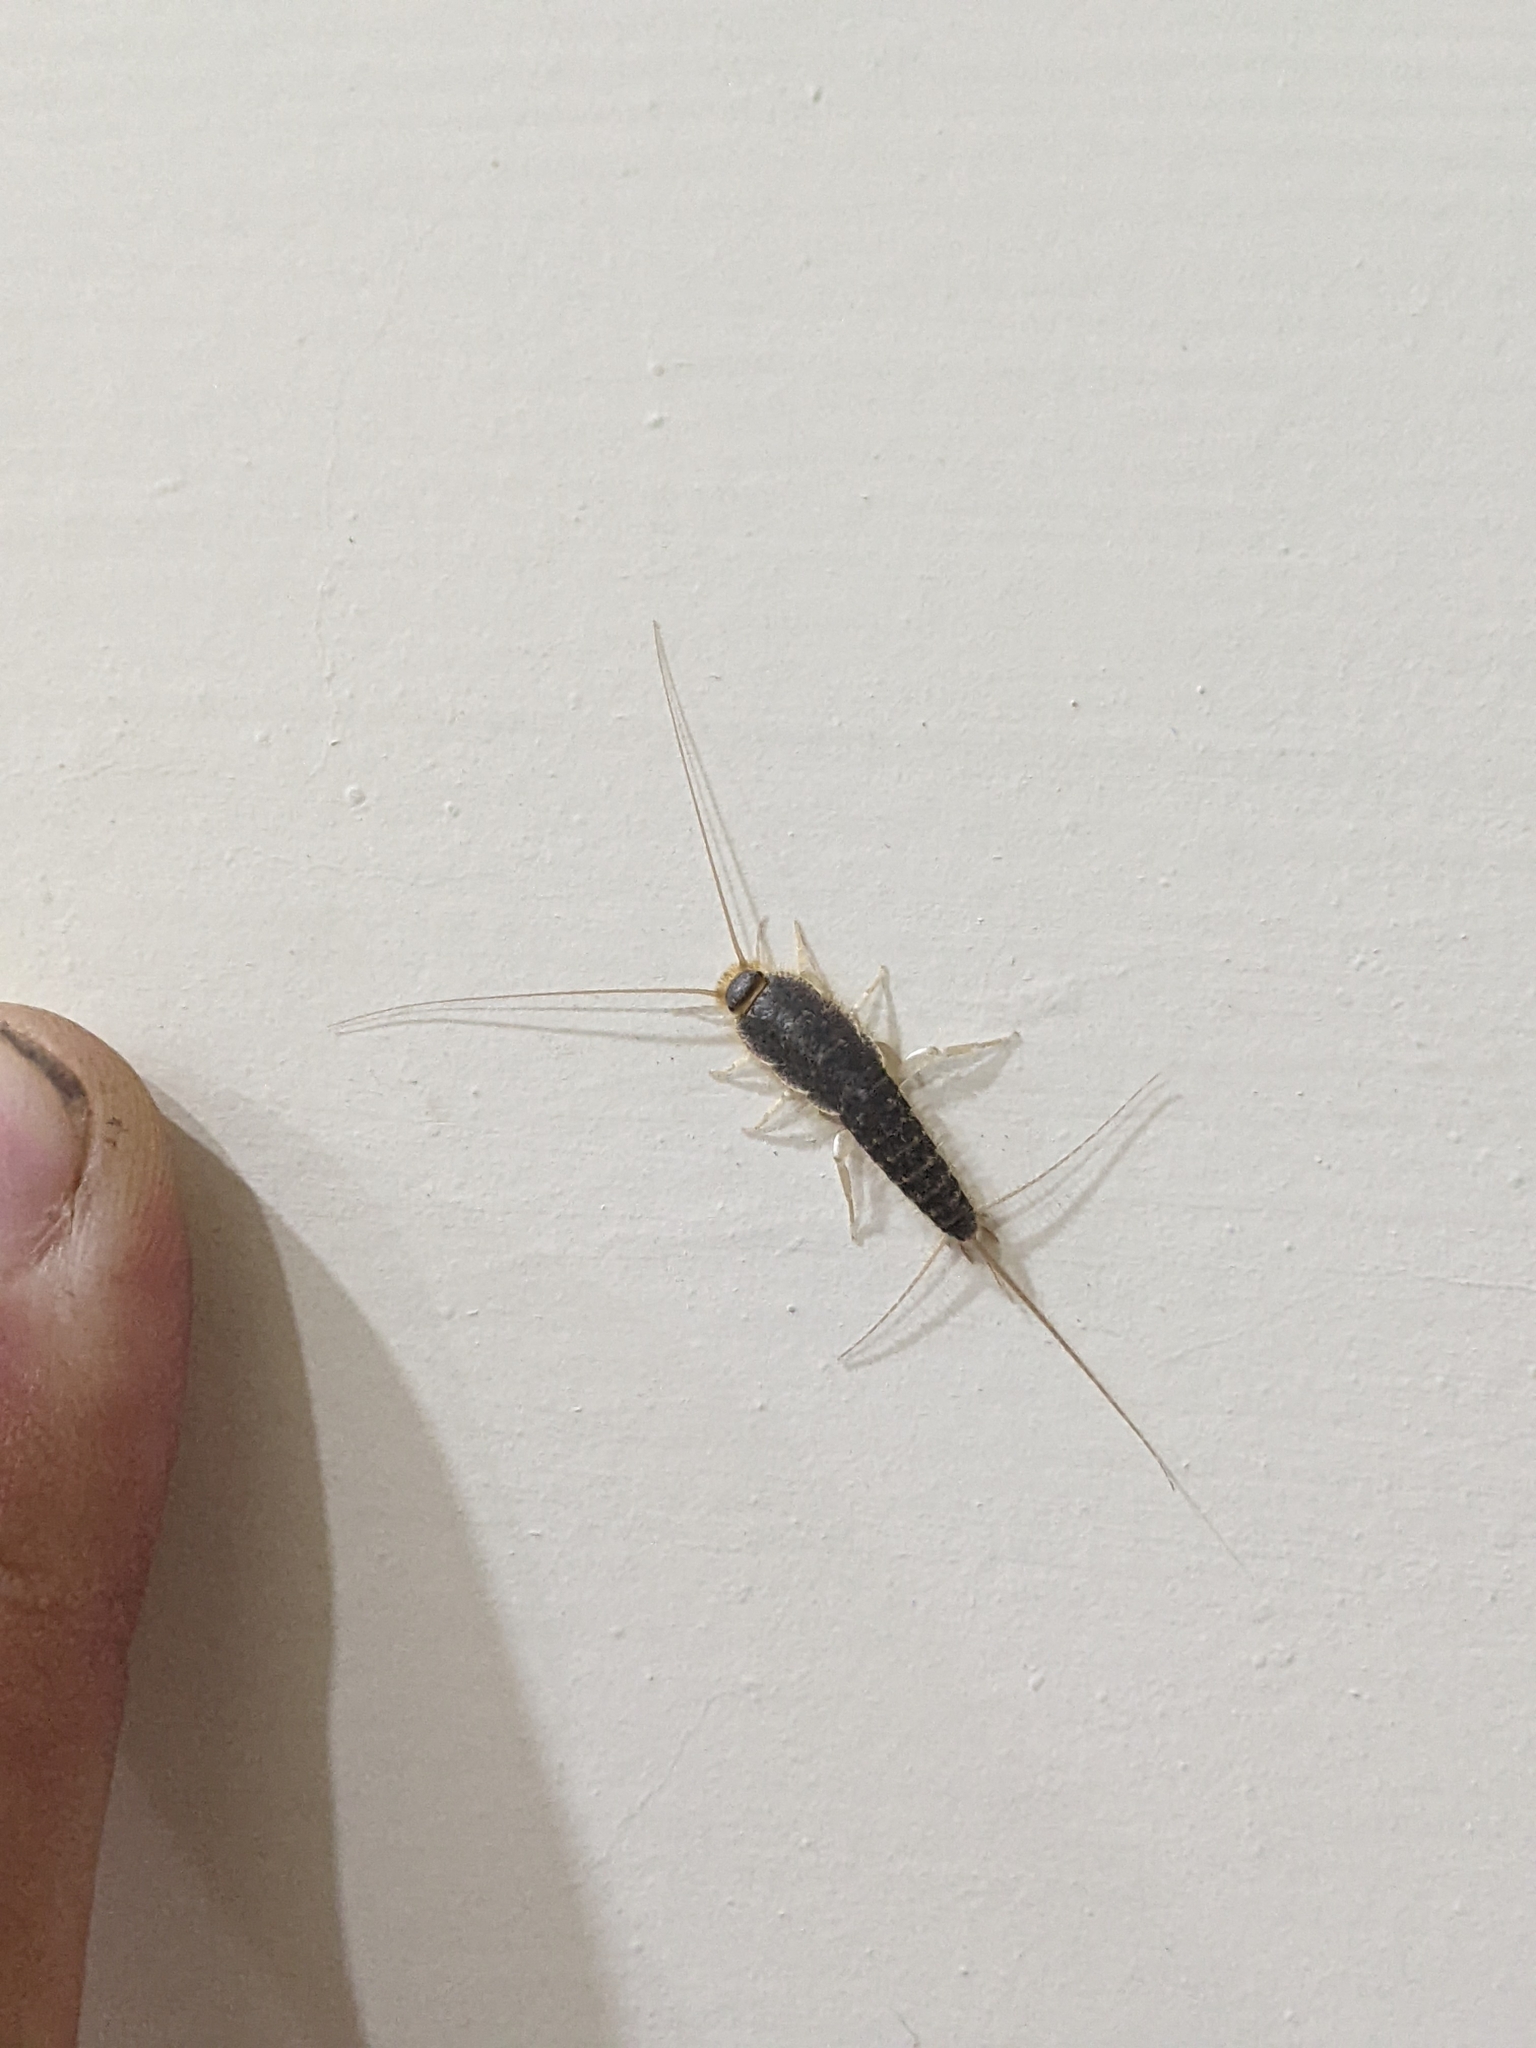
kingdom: Animalia
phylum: Arthropoda
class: Insecta
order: Zygentoma
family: Lepismatidae
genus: Ctenolepisma
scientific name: Ctenolepisma longicaudatum
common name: Silverfish
